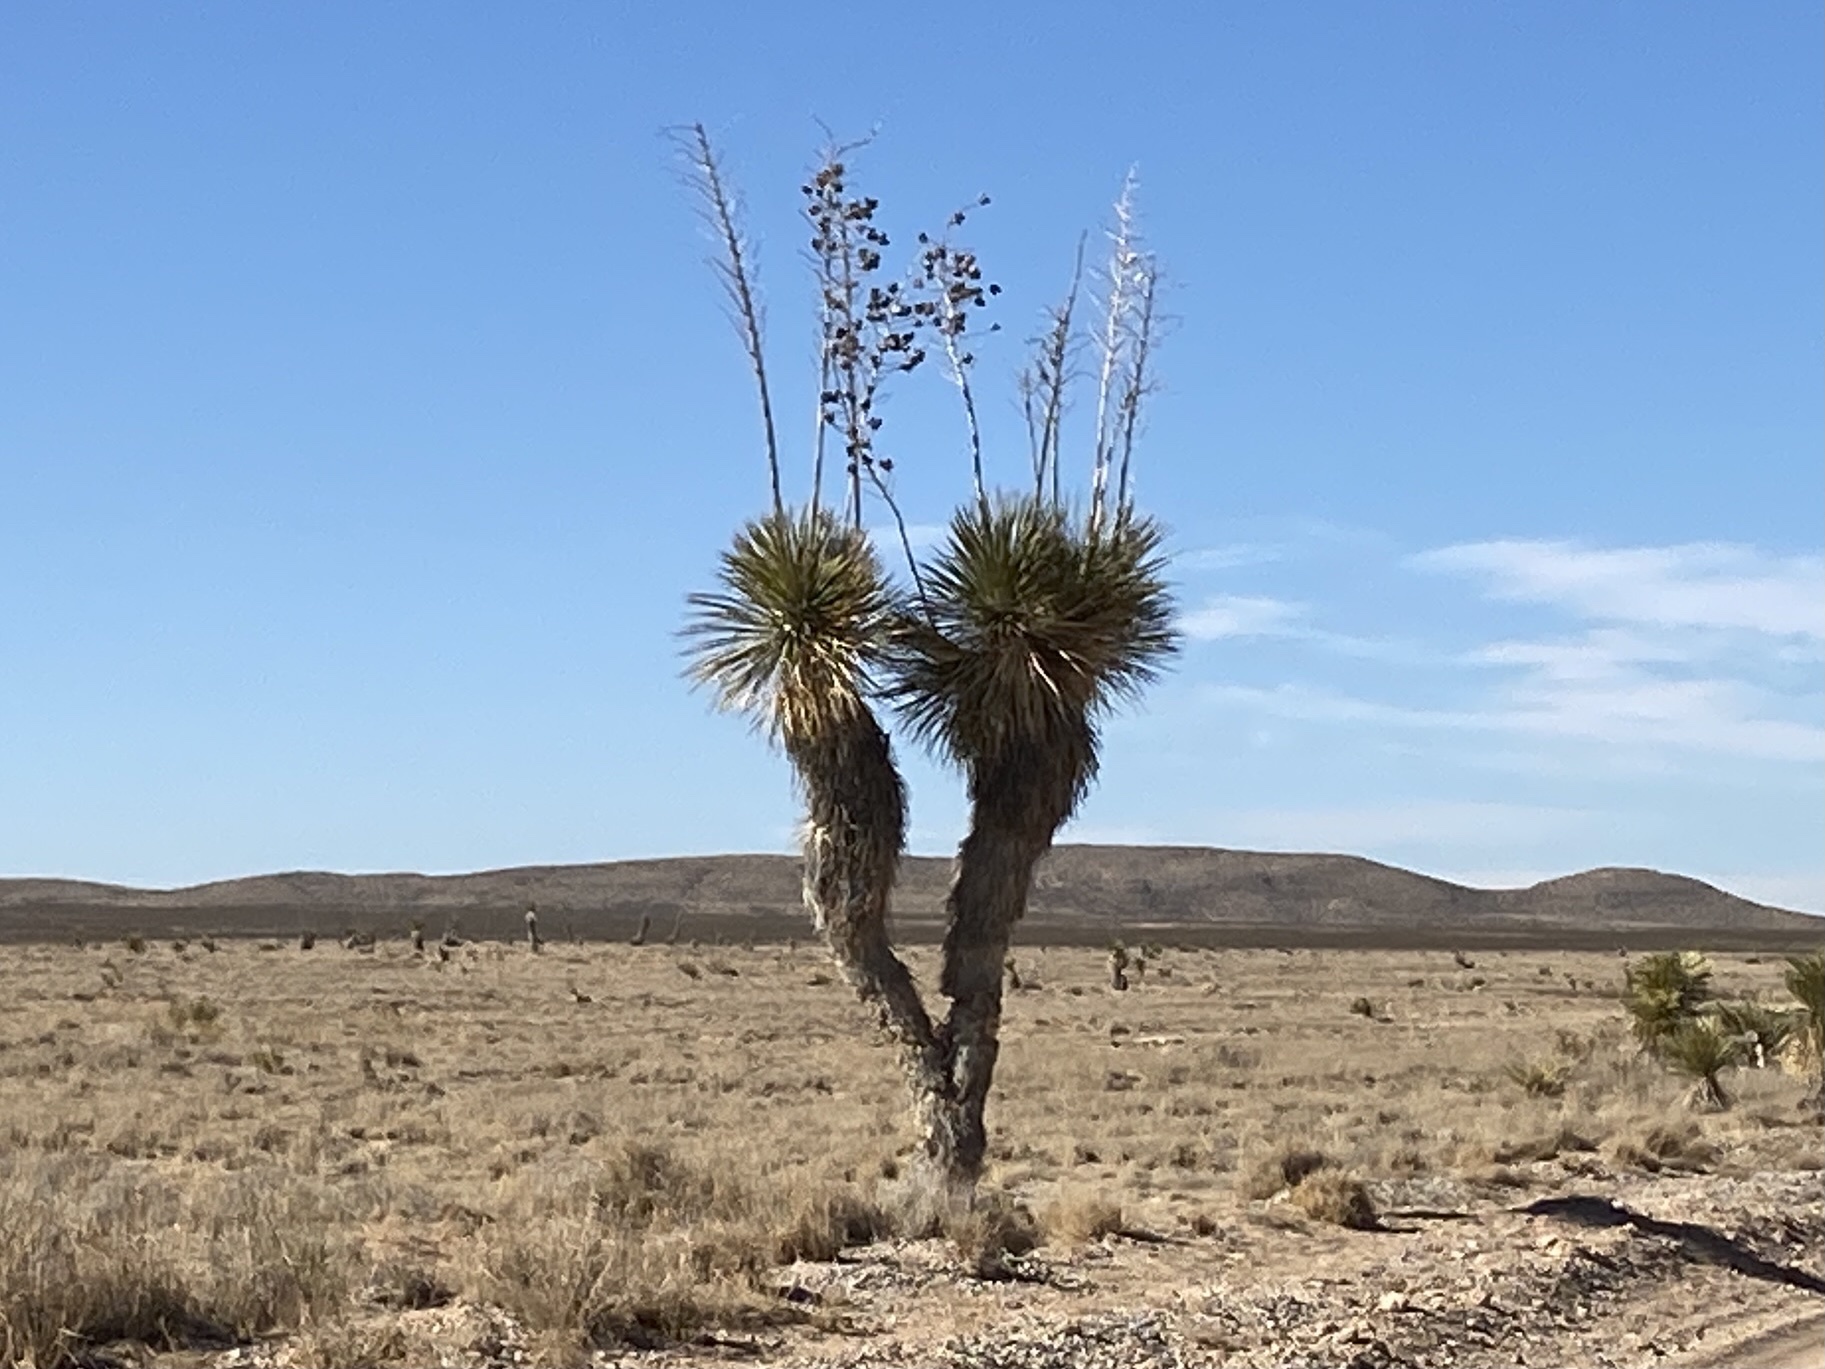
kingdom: Plantae
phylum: Tracheophyta
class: Liliopsida
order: Asparagales
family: Asparagaceae
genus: Yucca
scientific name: Yucca elata
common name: Palmella
